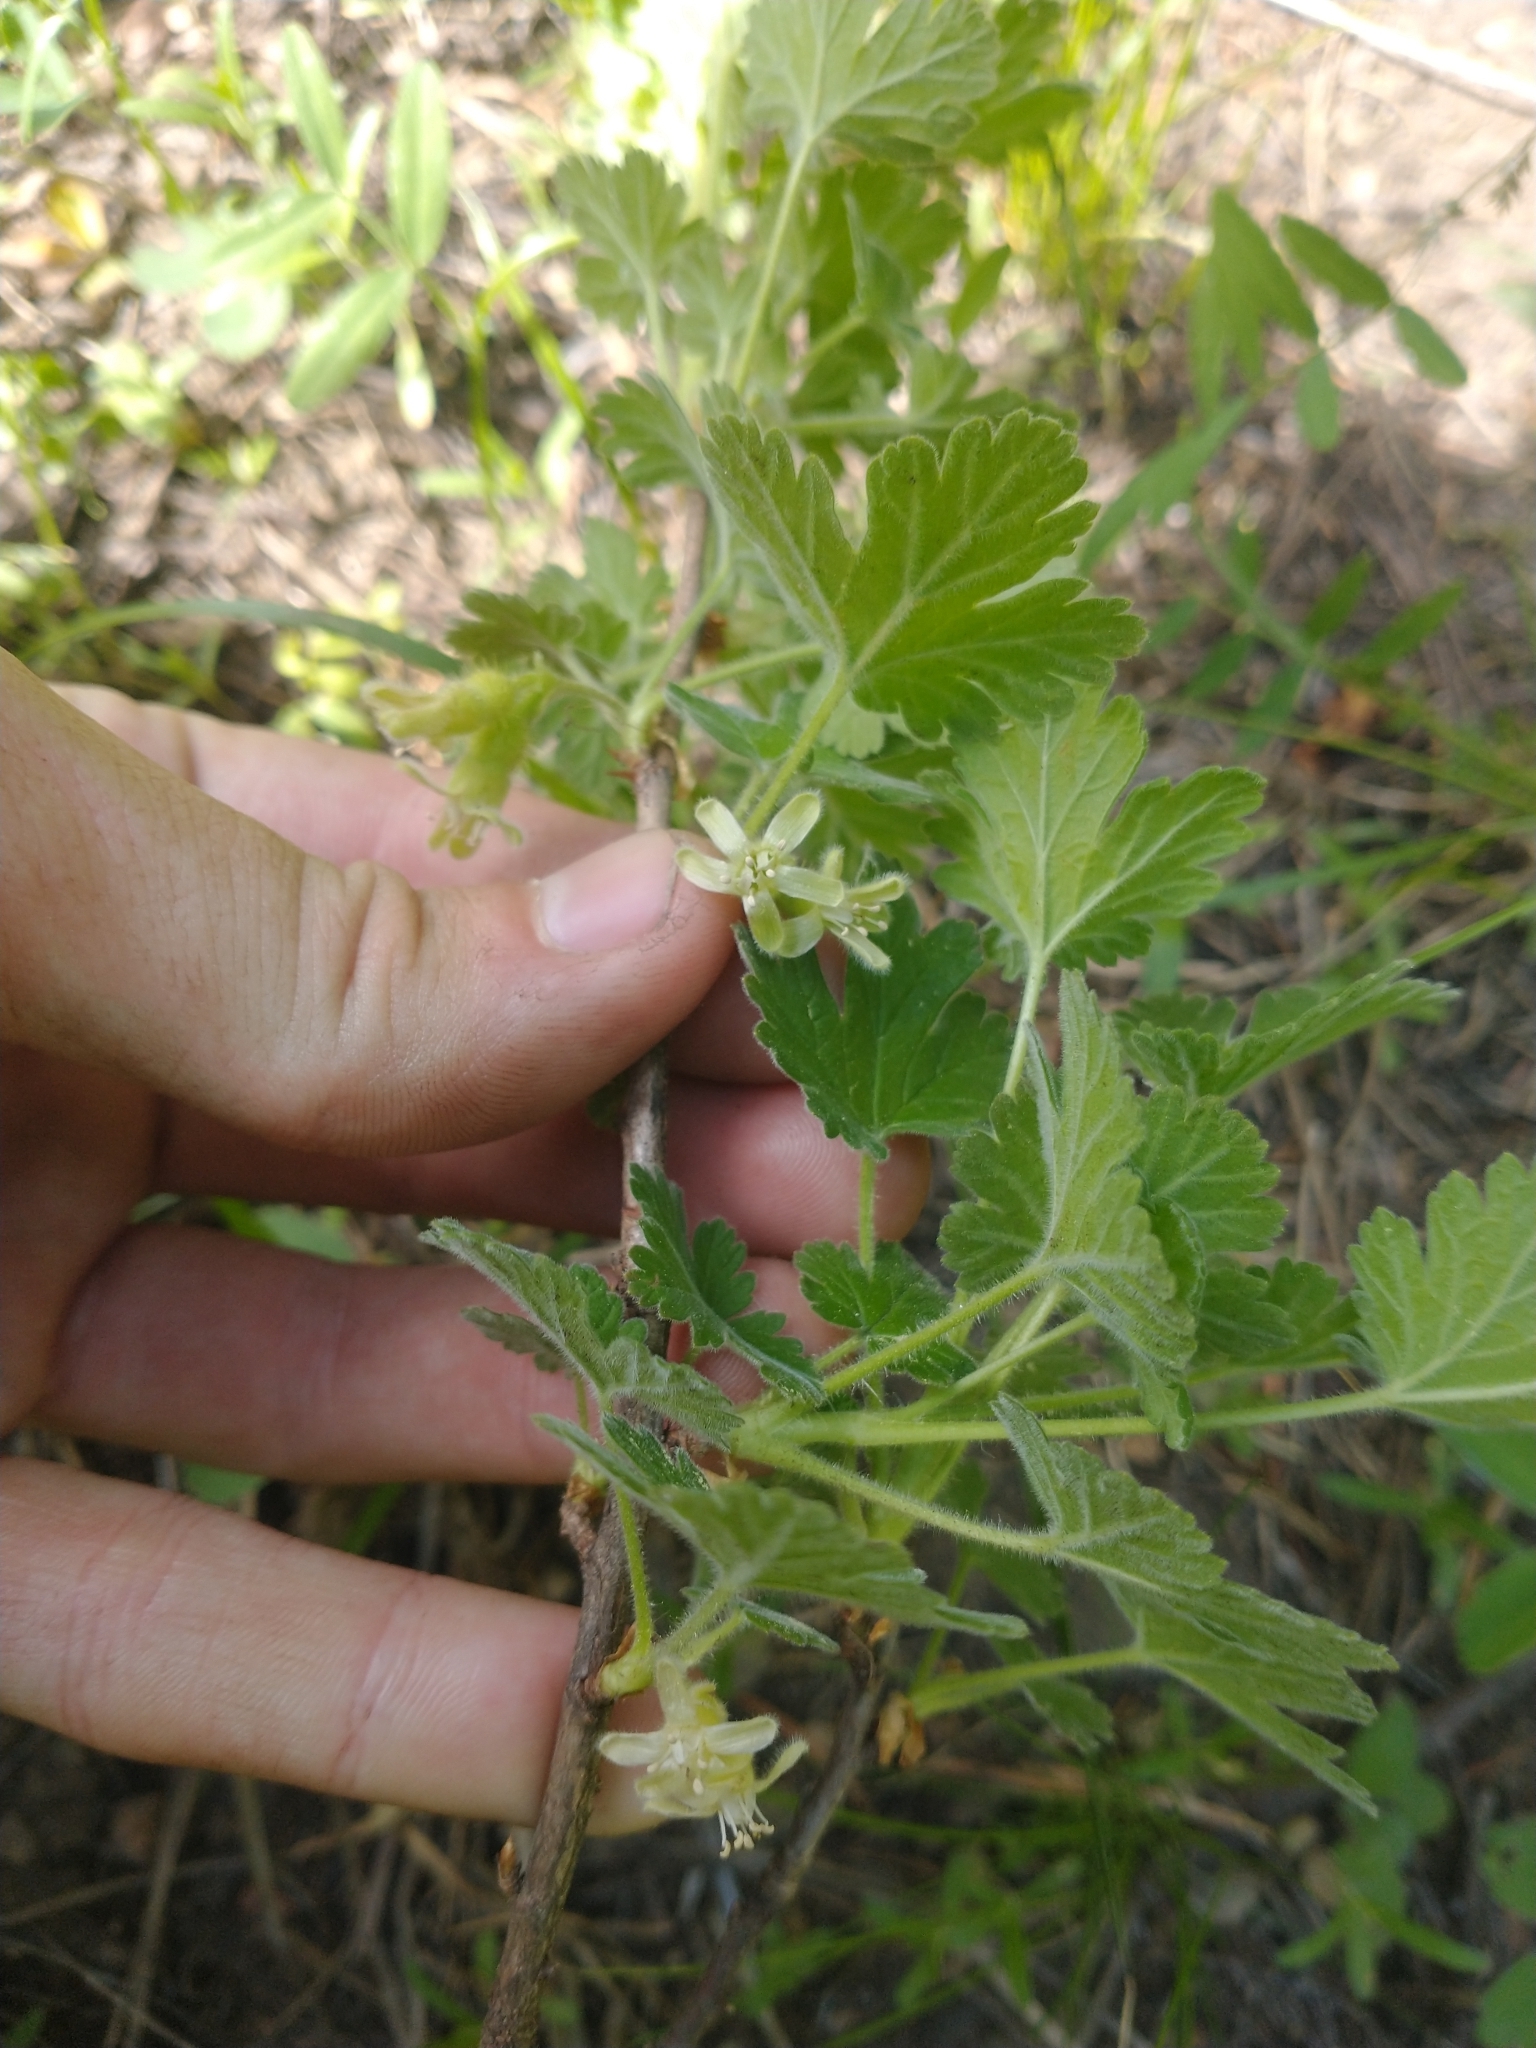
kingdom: Plantae
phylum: Tracheophyta
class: Magnoliopsida
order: Saxifragales
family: Grossulariaceae
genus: Ribes
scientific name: Ribes binominatum
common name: Trailing gooseberry
